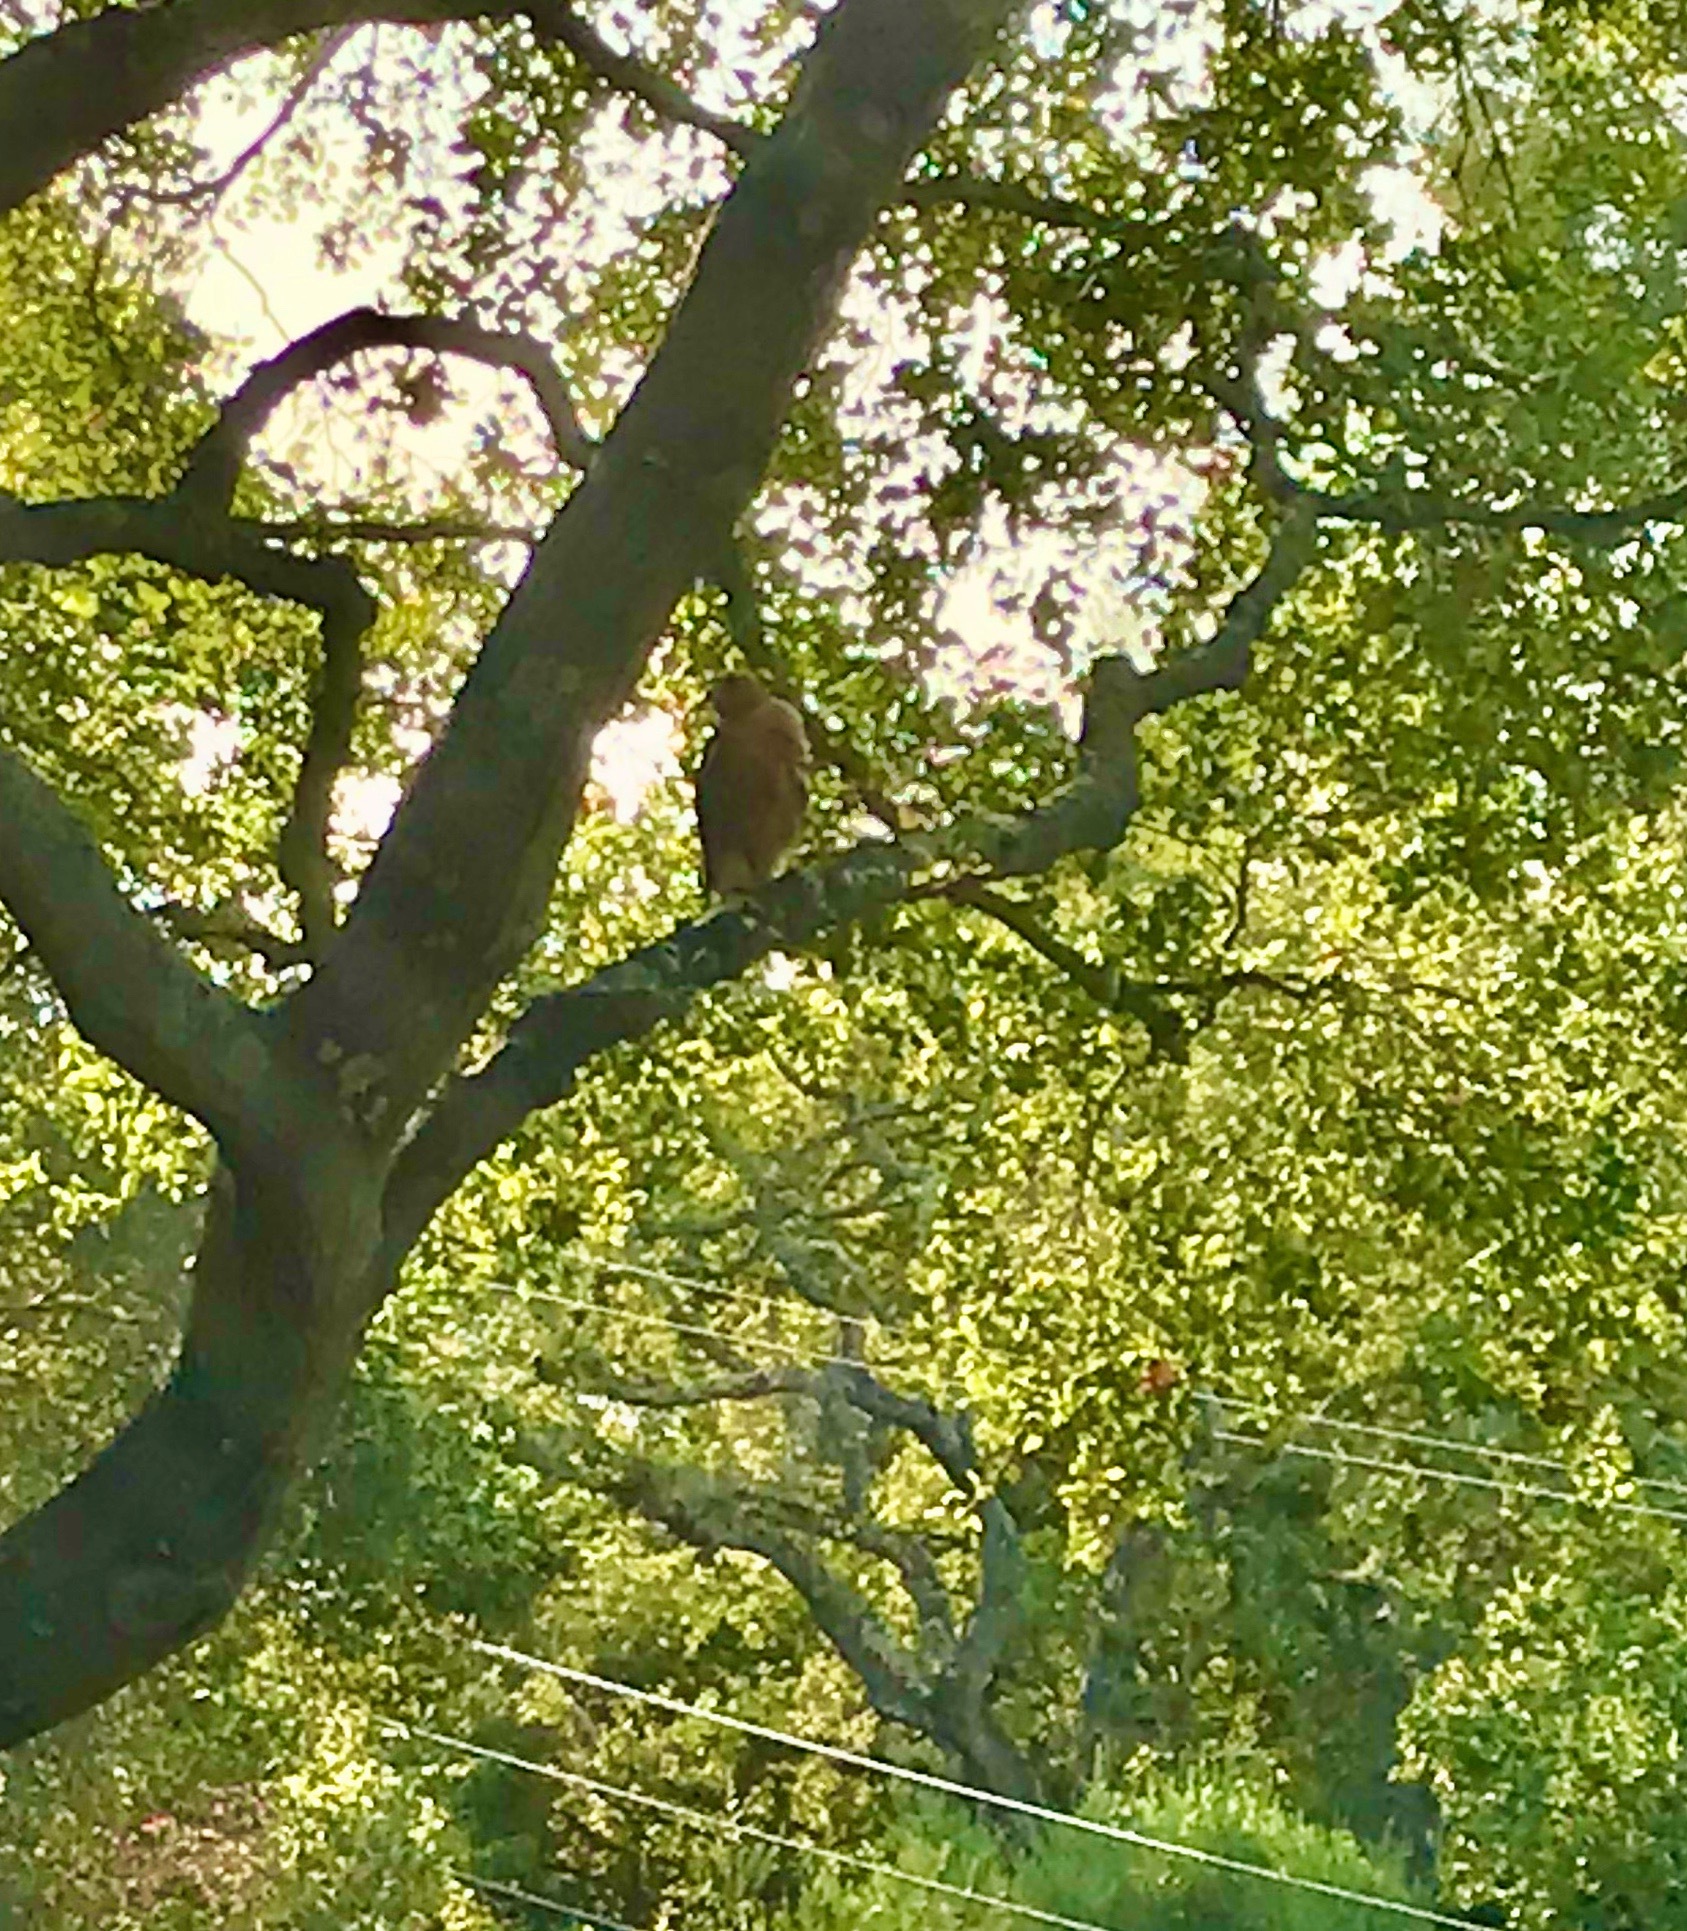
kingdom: Animalia
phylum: Chordata
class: Aves
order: Accipitriformes
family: Accipitridae
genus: Buteo
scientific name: Buteo lineatus
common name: Red-shouldered hawk
